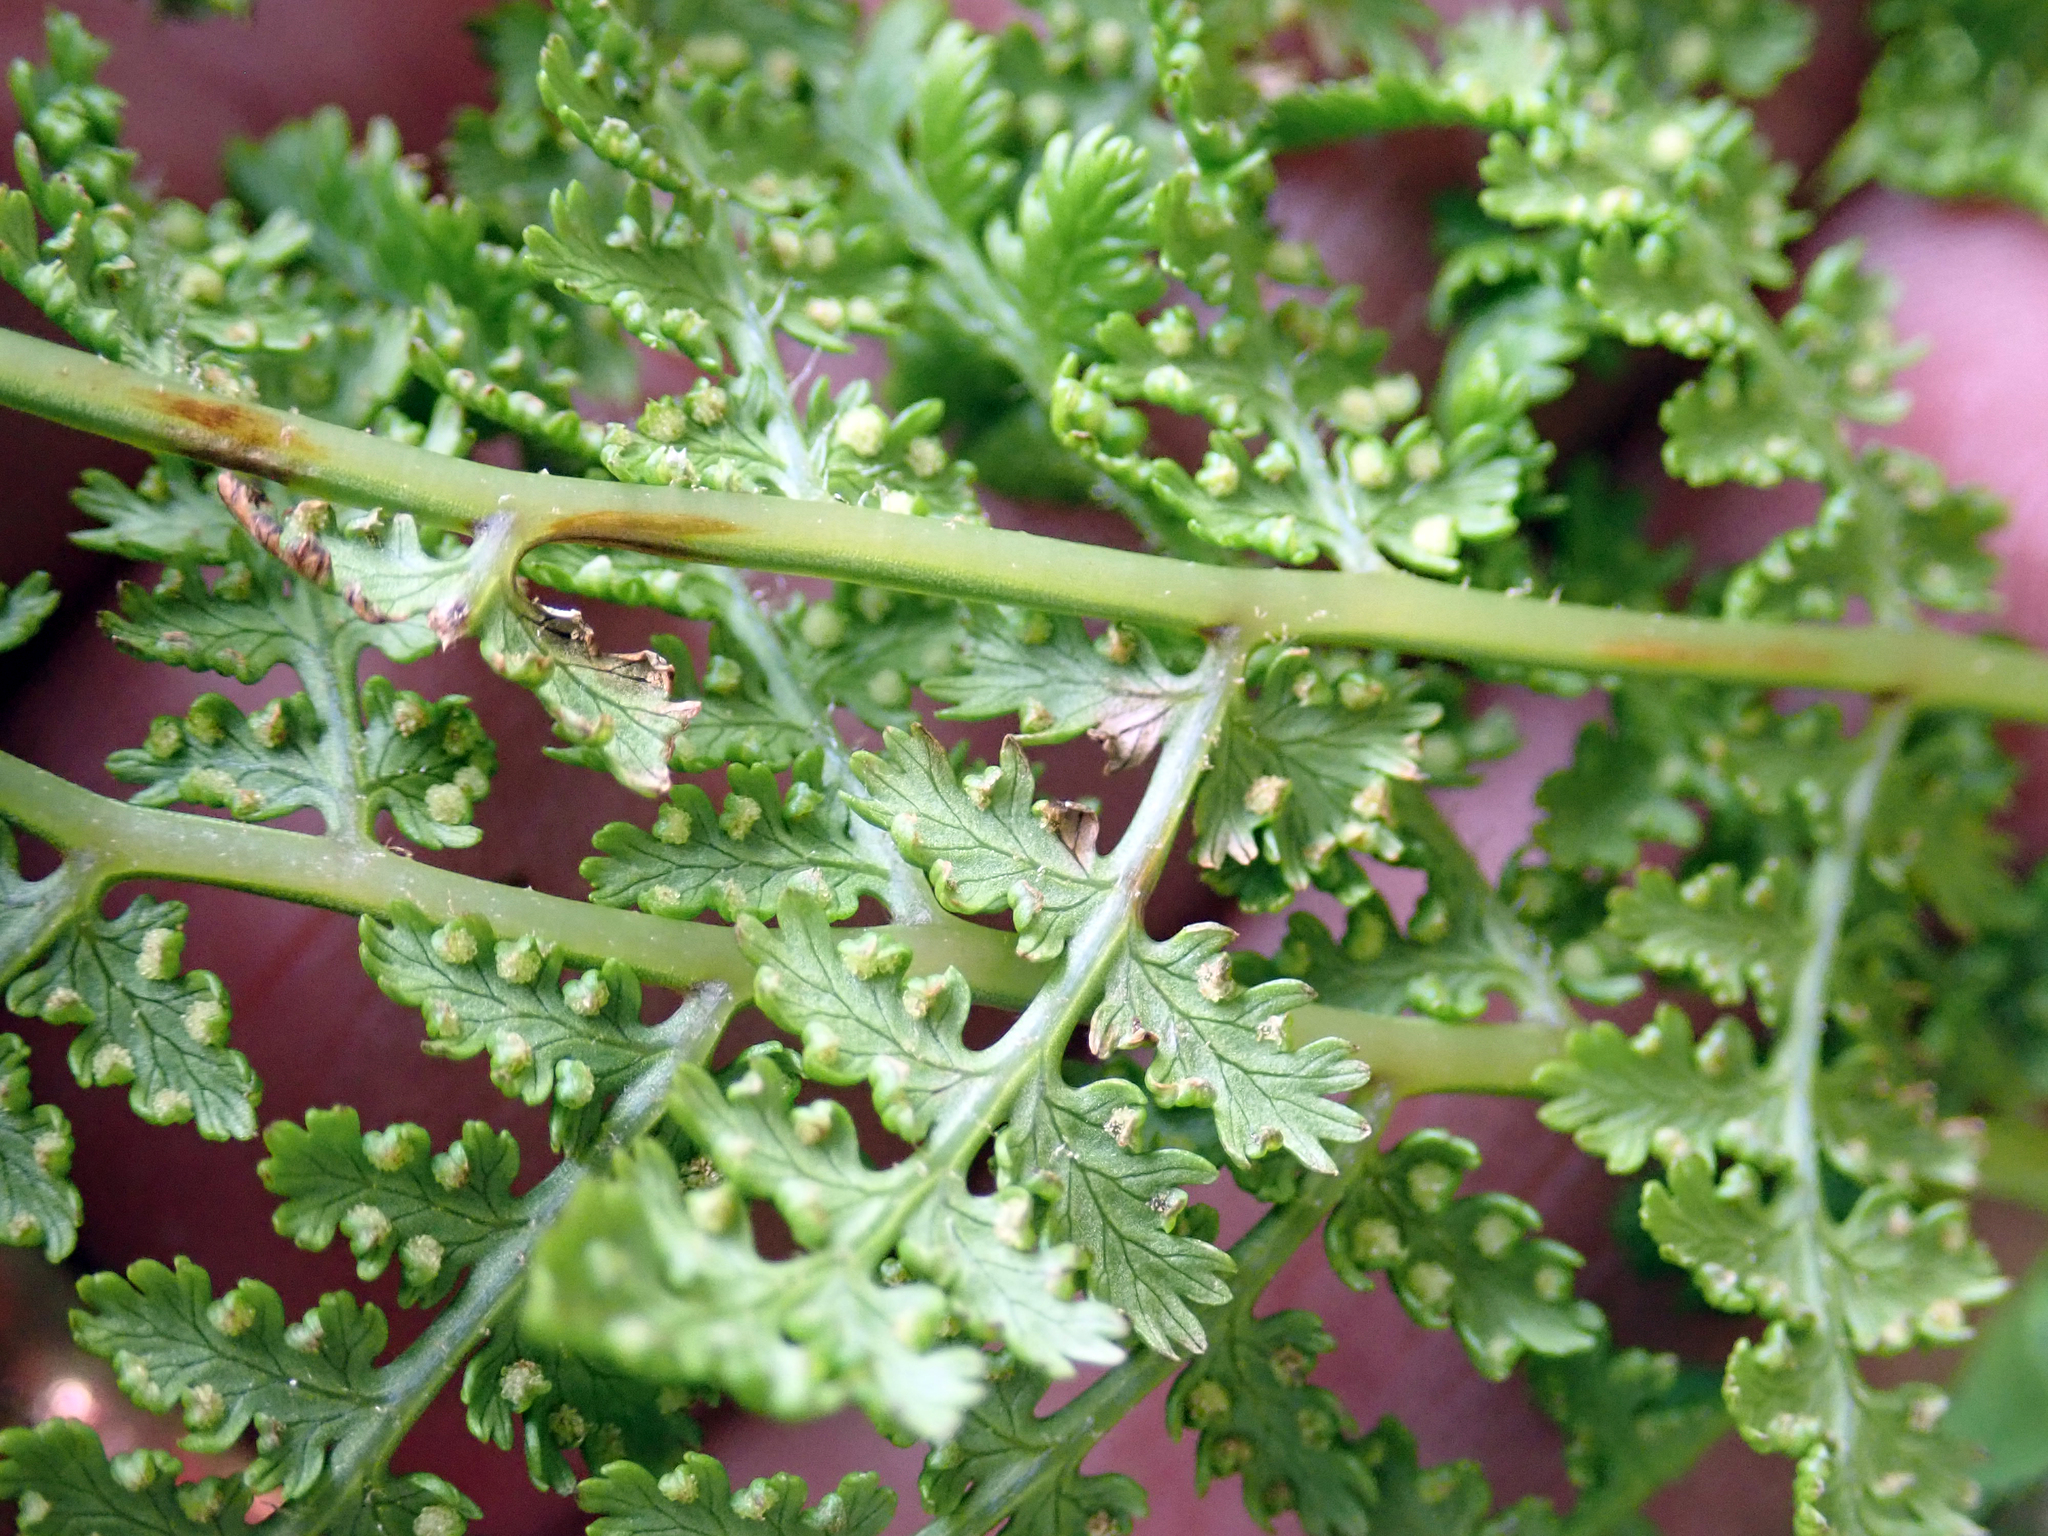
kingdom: Plantae
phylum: Tracheophyta
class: Polypodiopsida
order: Polypodiales
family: Dennstaedtiaceae
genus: Hypolepis
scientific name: Hypolepis millefolium
